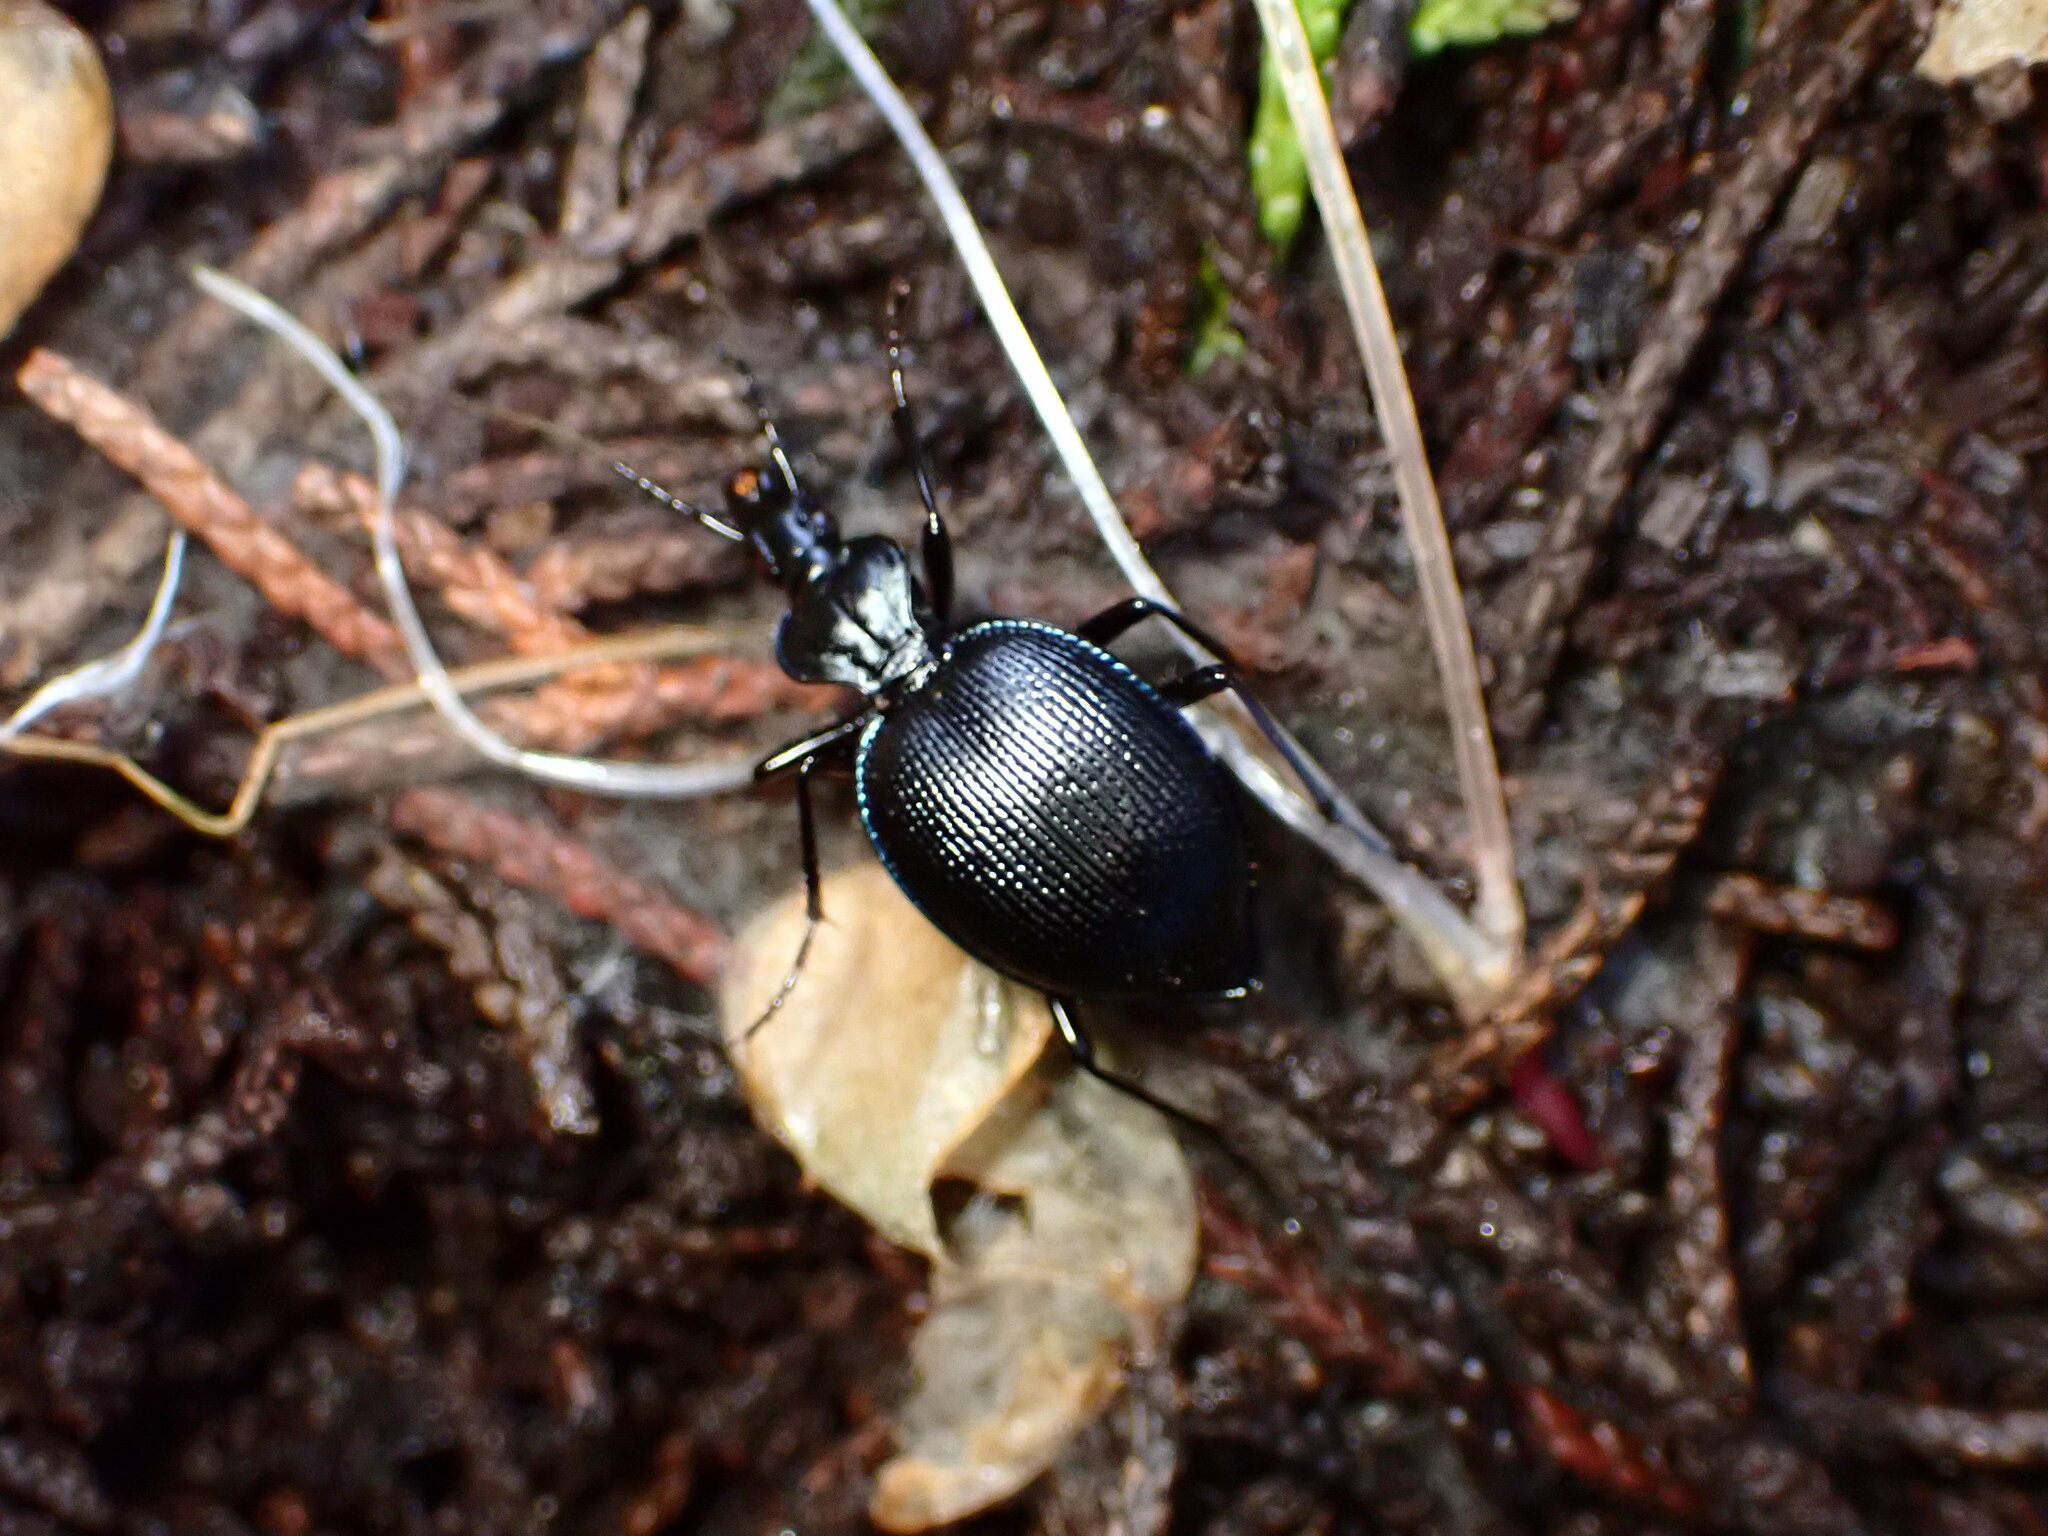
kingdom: Animalia
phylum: Arthropoda
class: Insecta
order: Coleoptera
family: Carabidae
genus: Scaphinotus
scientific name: Scaphinotus interruptus
